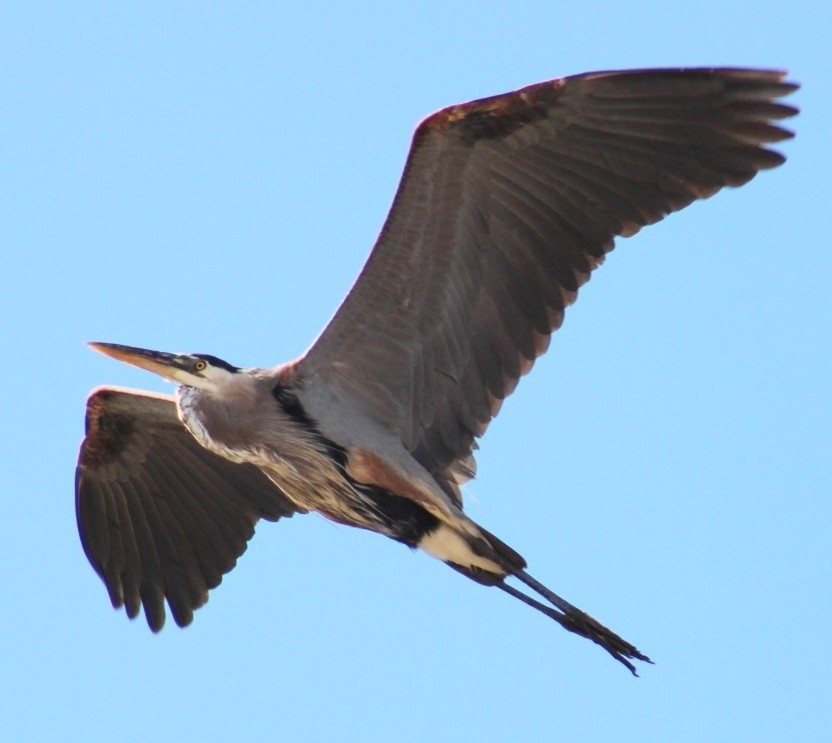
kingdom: Animalia
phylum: Chordata
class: Aves
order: Pelecaniformes
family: Ardeidae
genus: Ardea
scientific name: Ardea herodias
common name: Great blue heron
